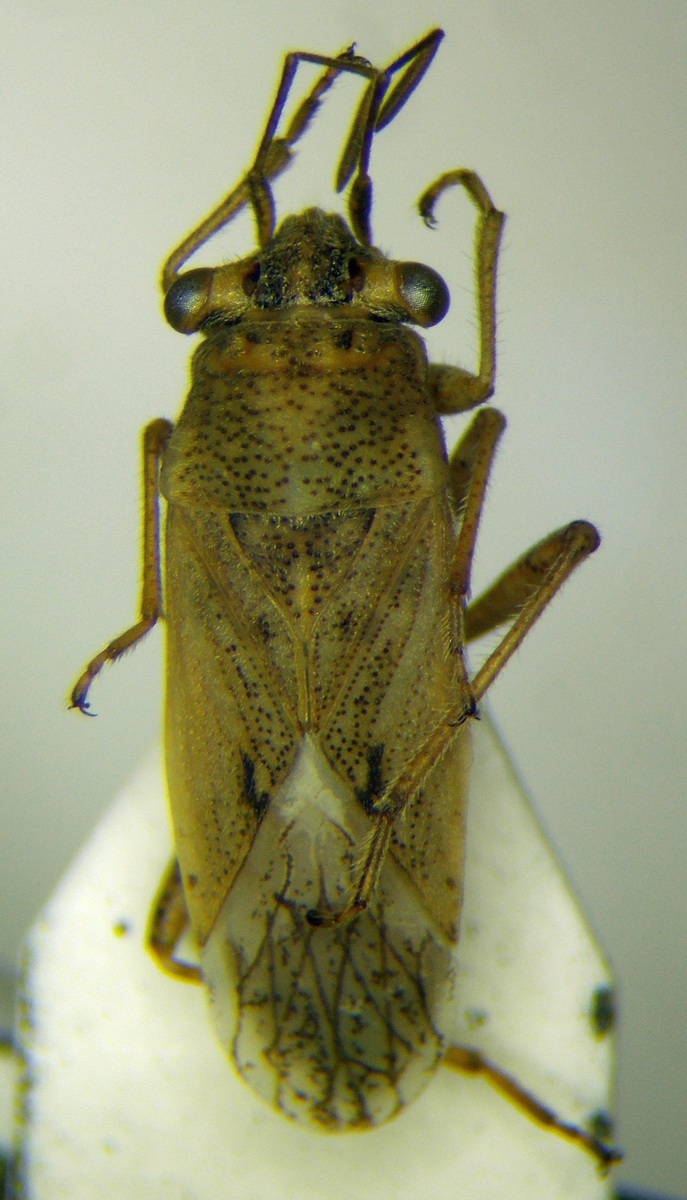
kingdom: Animalia
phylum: Arthropoda
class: Insecta
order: Hemiptera
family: Geocoridae
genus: Henestaris
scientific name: Henestaris halophilus
